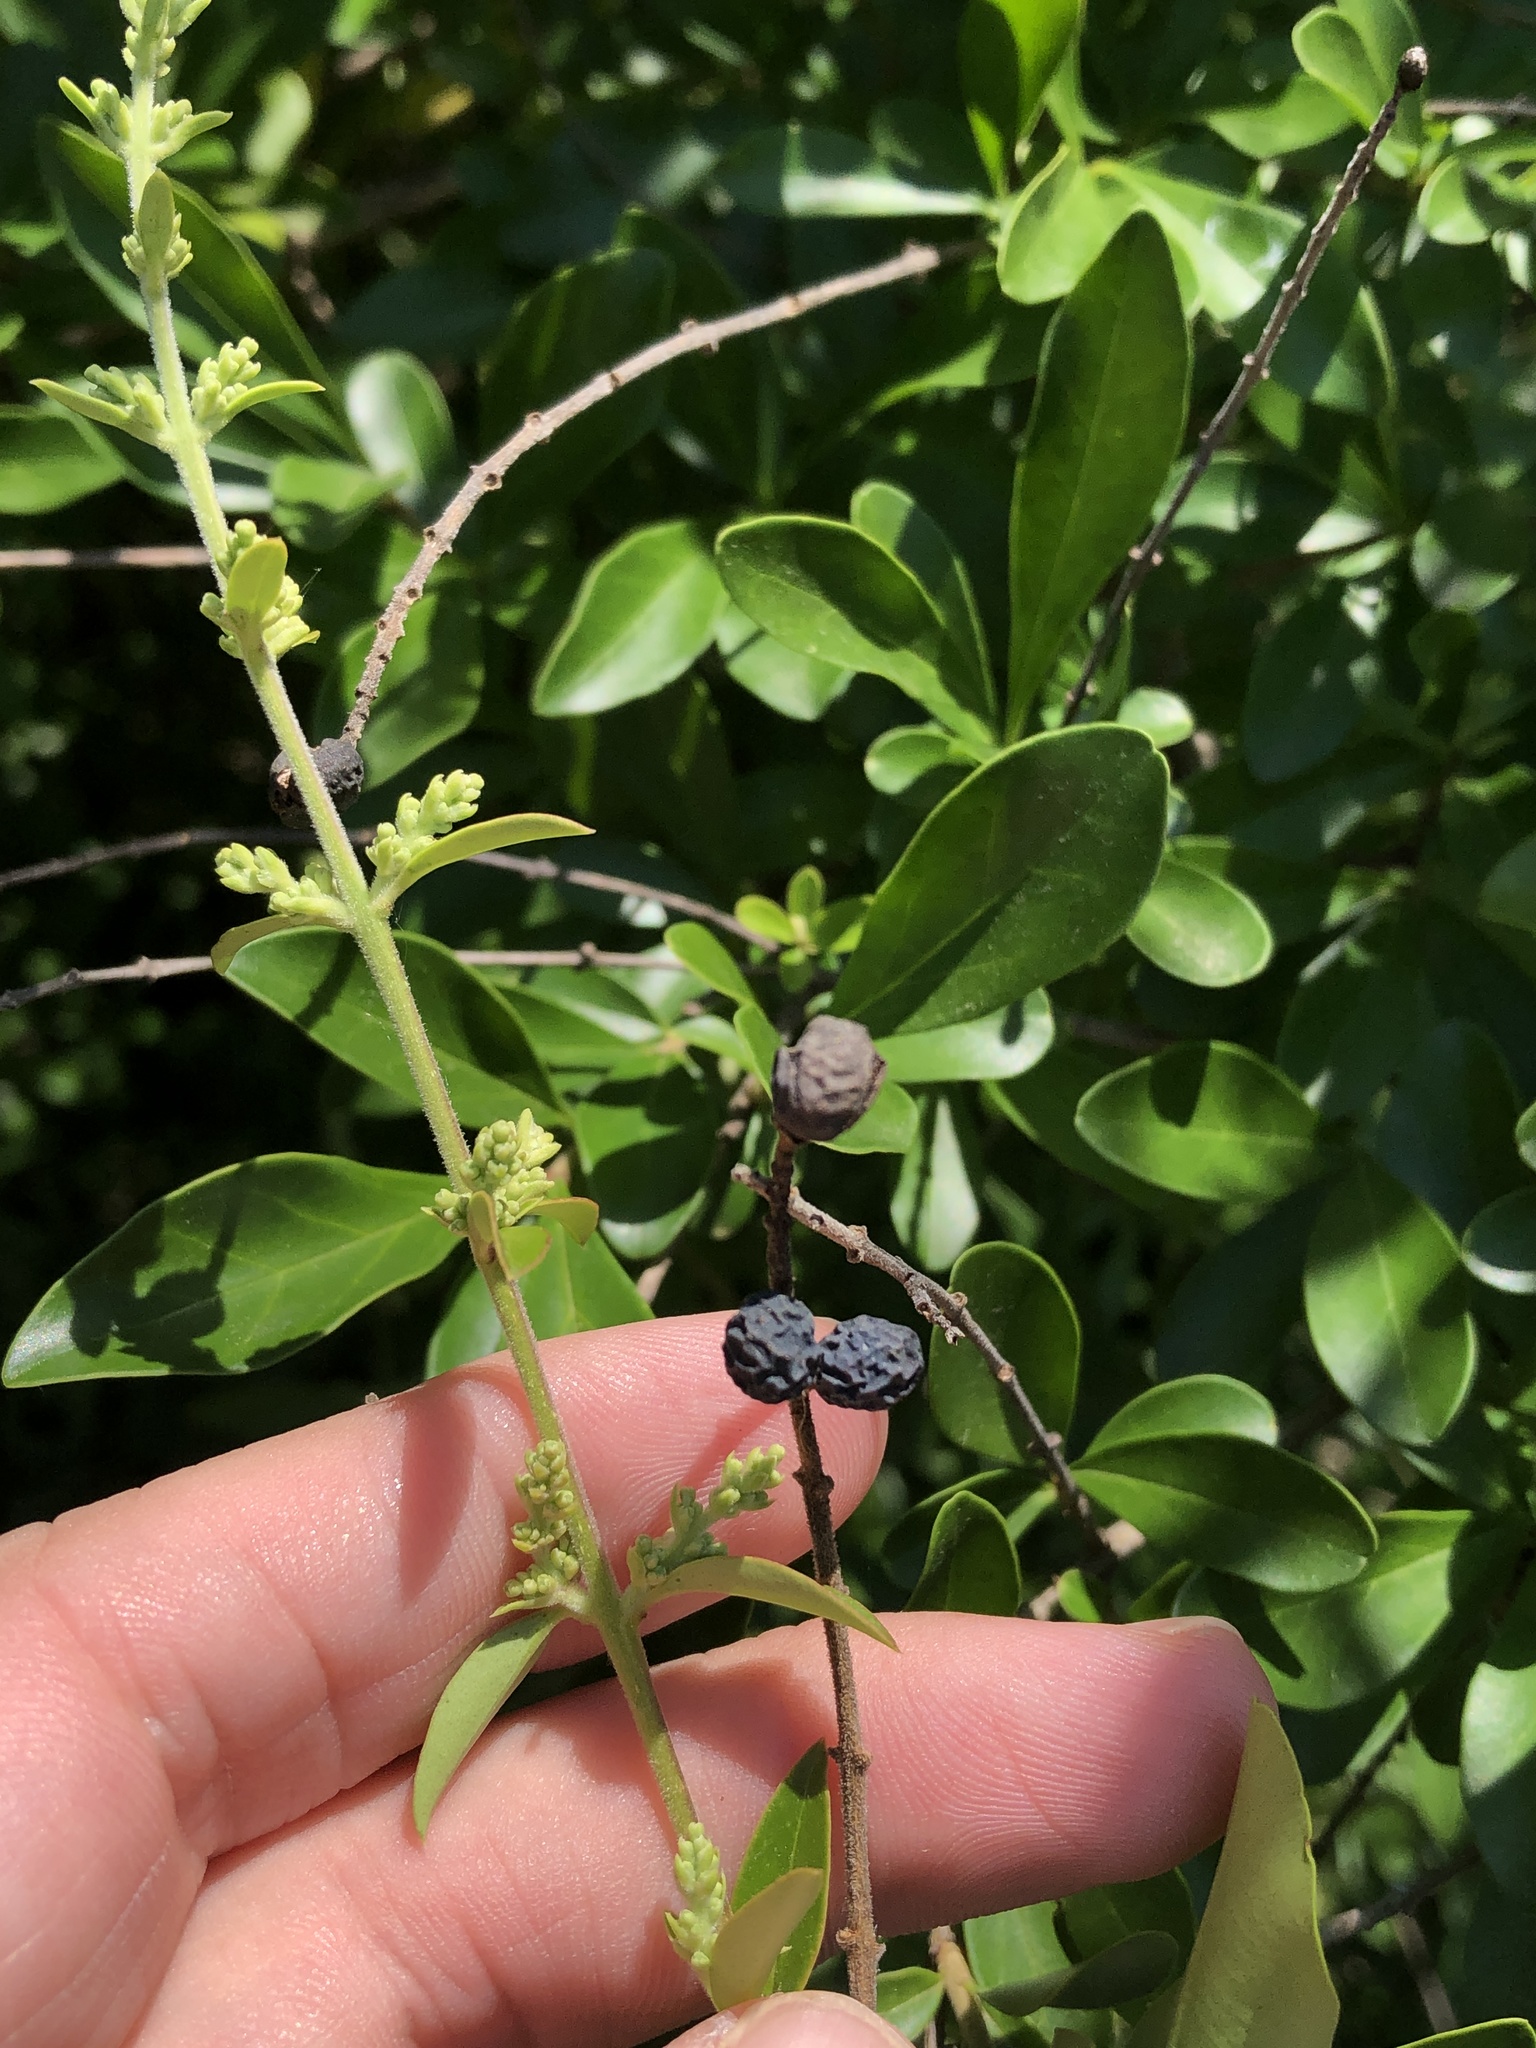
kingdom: Plantae
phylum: Tracheophyta
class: Magnoliopsida
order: Lamiales
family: Oleaceae
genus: Ligustrum
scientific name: Ligustrum quihoui
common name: Waxyleaf privet
